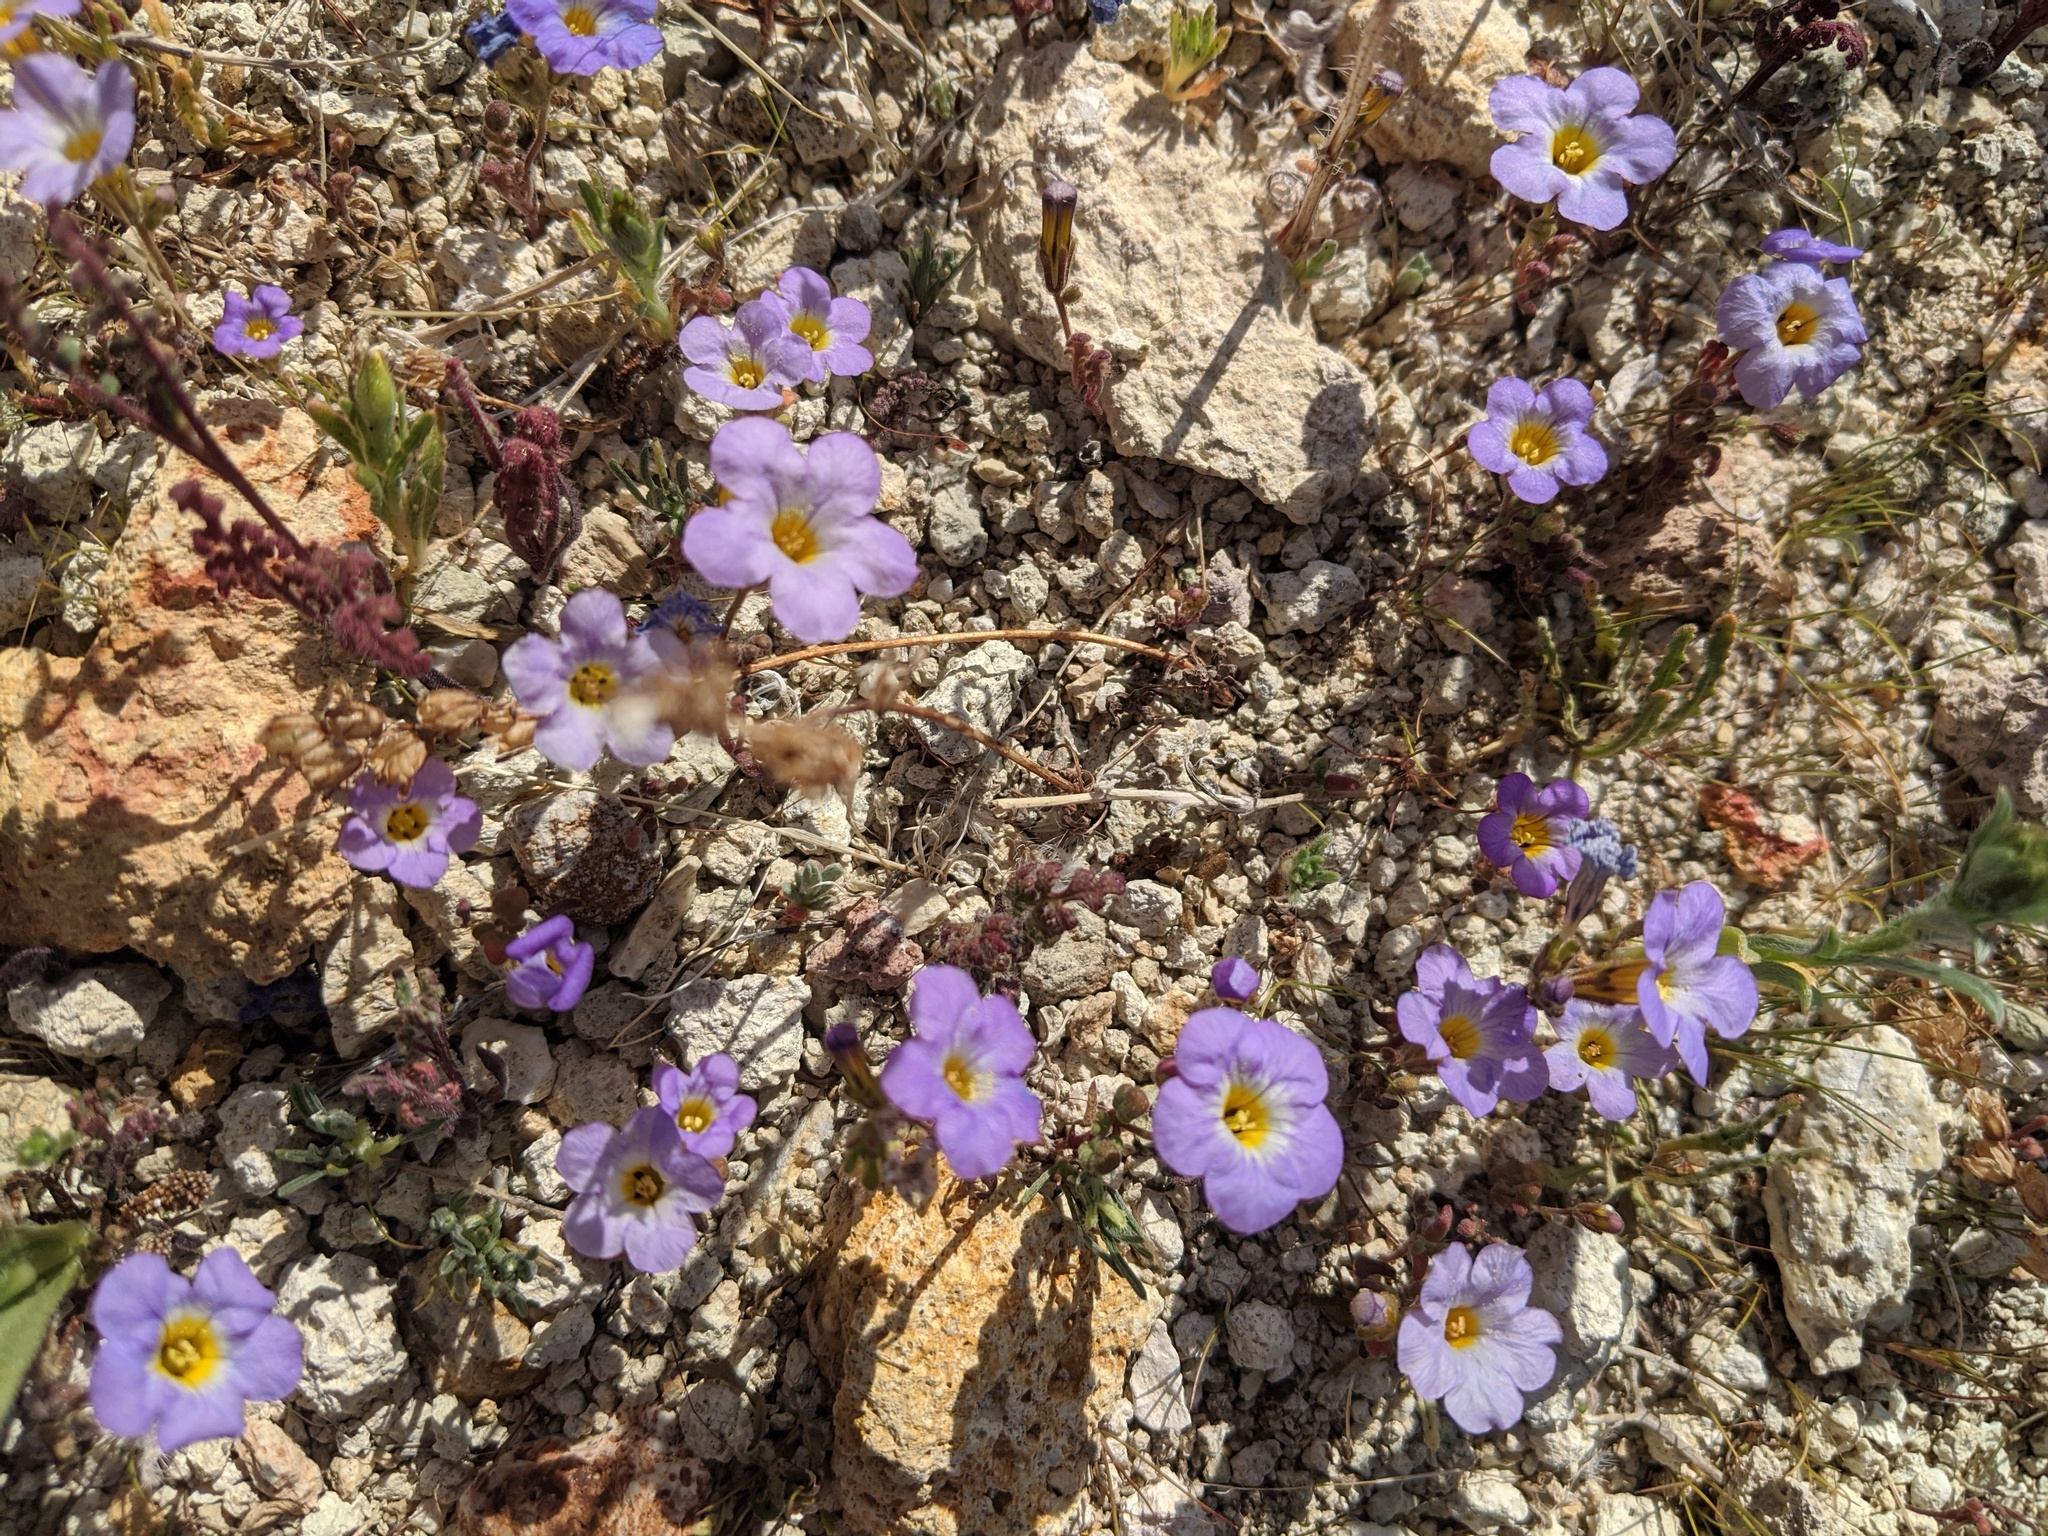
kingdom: Plantae
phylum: Tracheophyta
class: Magnoliopsida
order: Boraginales
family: Hydrophyllaceae
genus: Phacelia
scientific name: Phacelia fremontii
